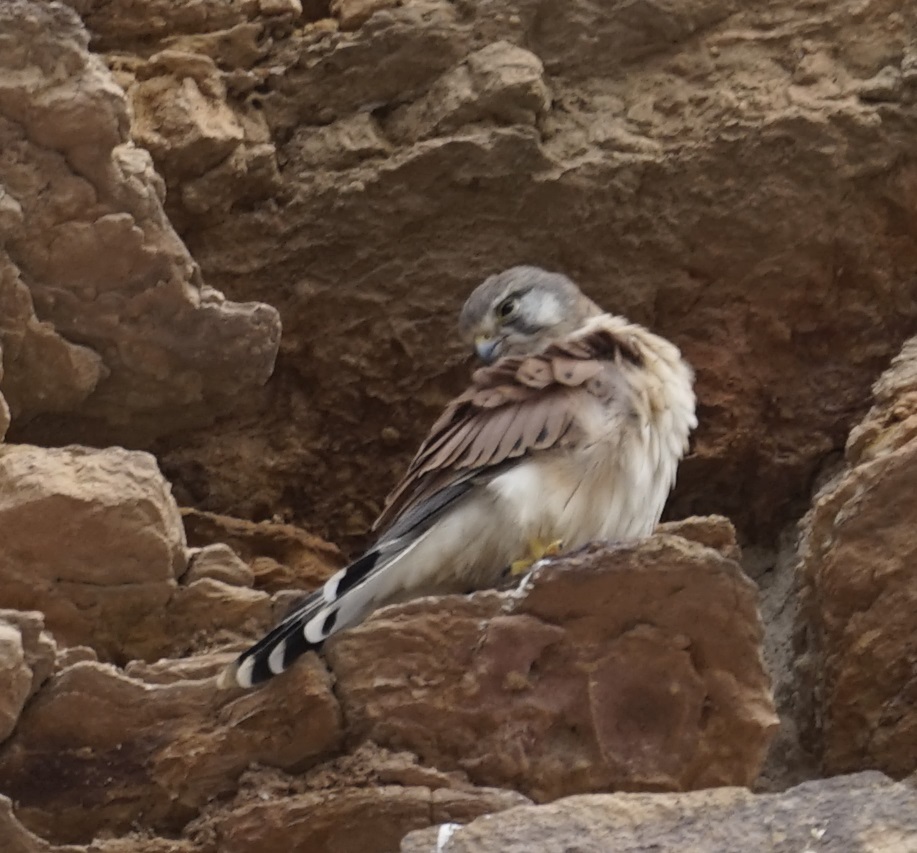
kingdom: Animalia
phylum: Chordata
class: Aves
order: Falconiformes
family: Falconidae
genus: Falco
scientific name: Falco cenchroides
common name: Nankeen kestrel
